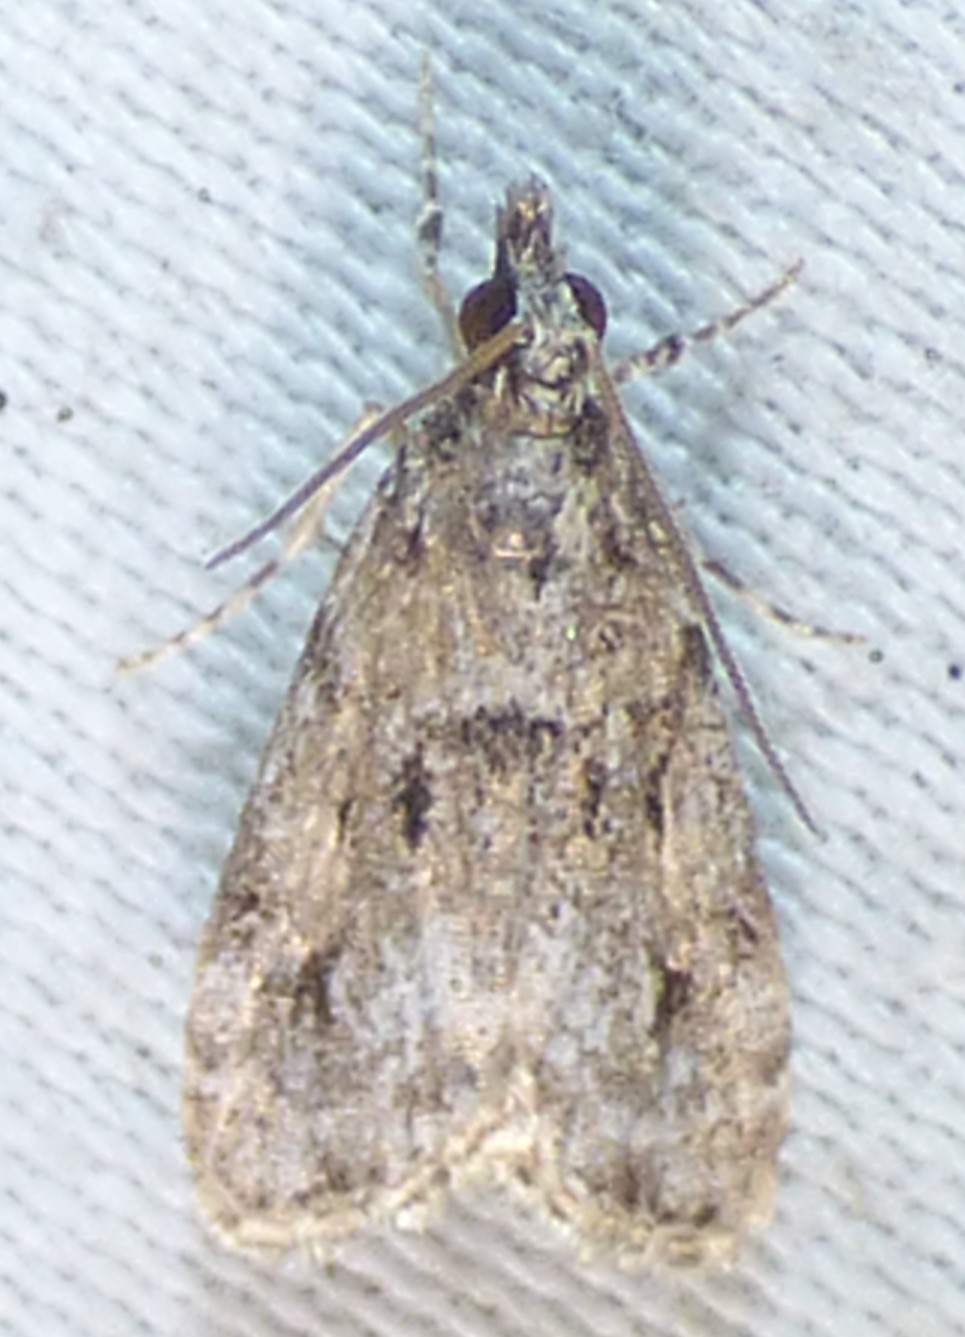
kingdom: Animalia
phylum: Arthropoda
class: Insecta
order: Lepidoptera
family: Crambidae
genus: Eudonia
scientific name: Eudonia heterosalis
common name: Mcdunnough's eudonia
